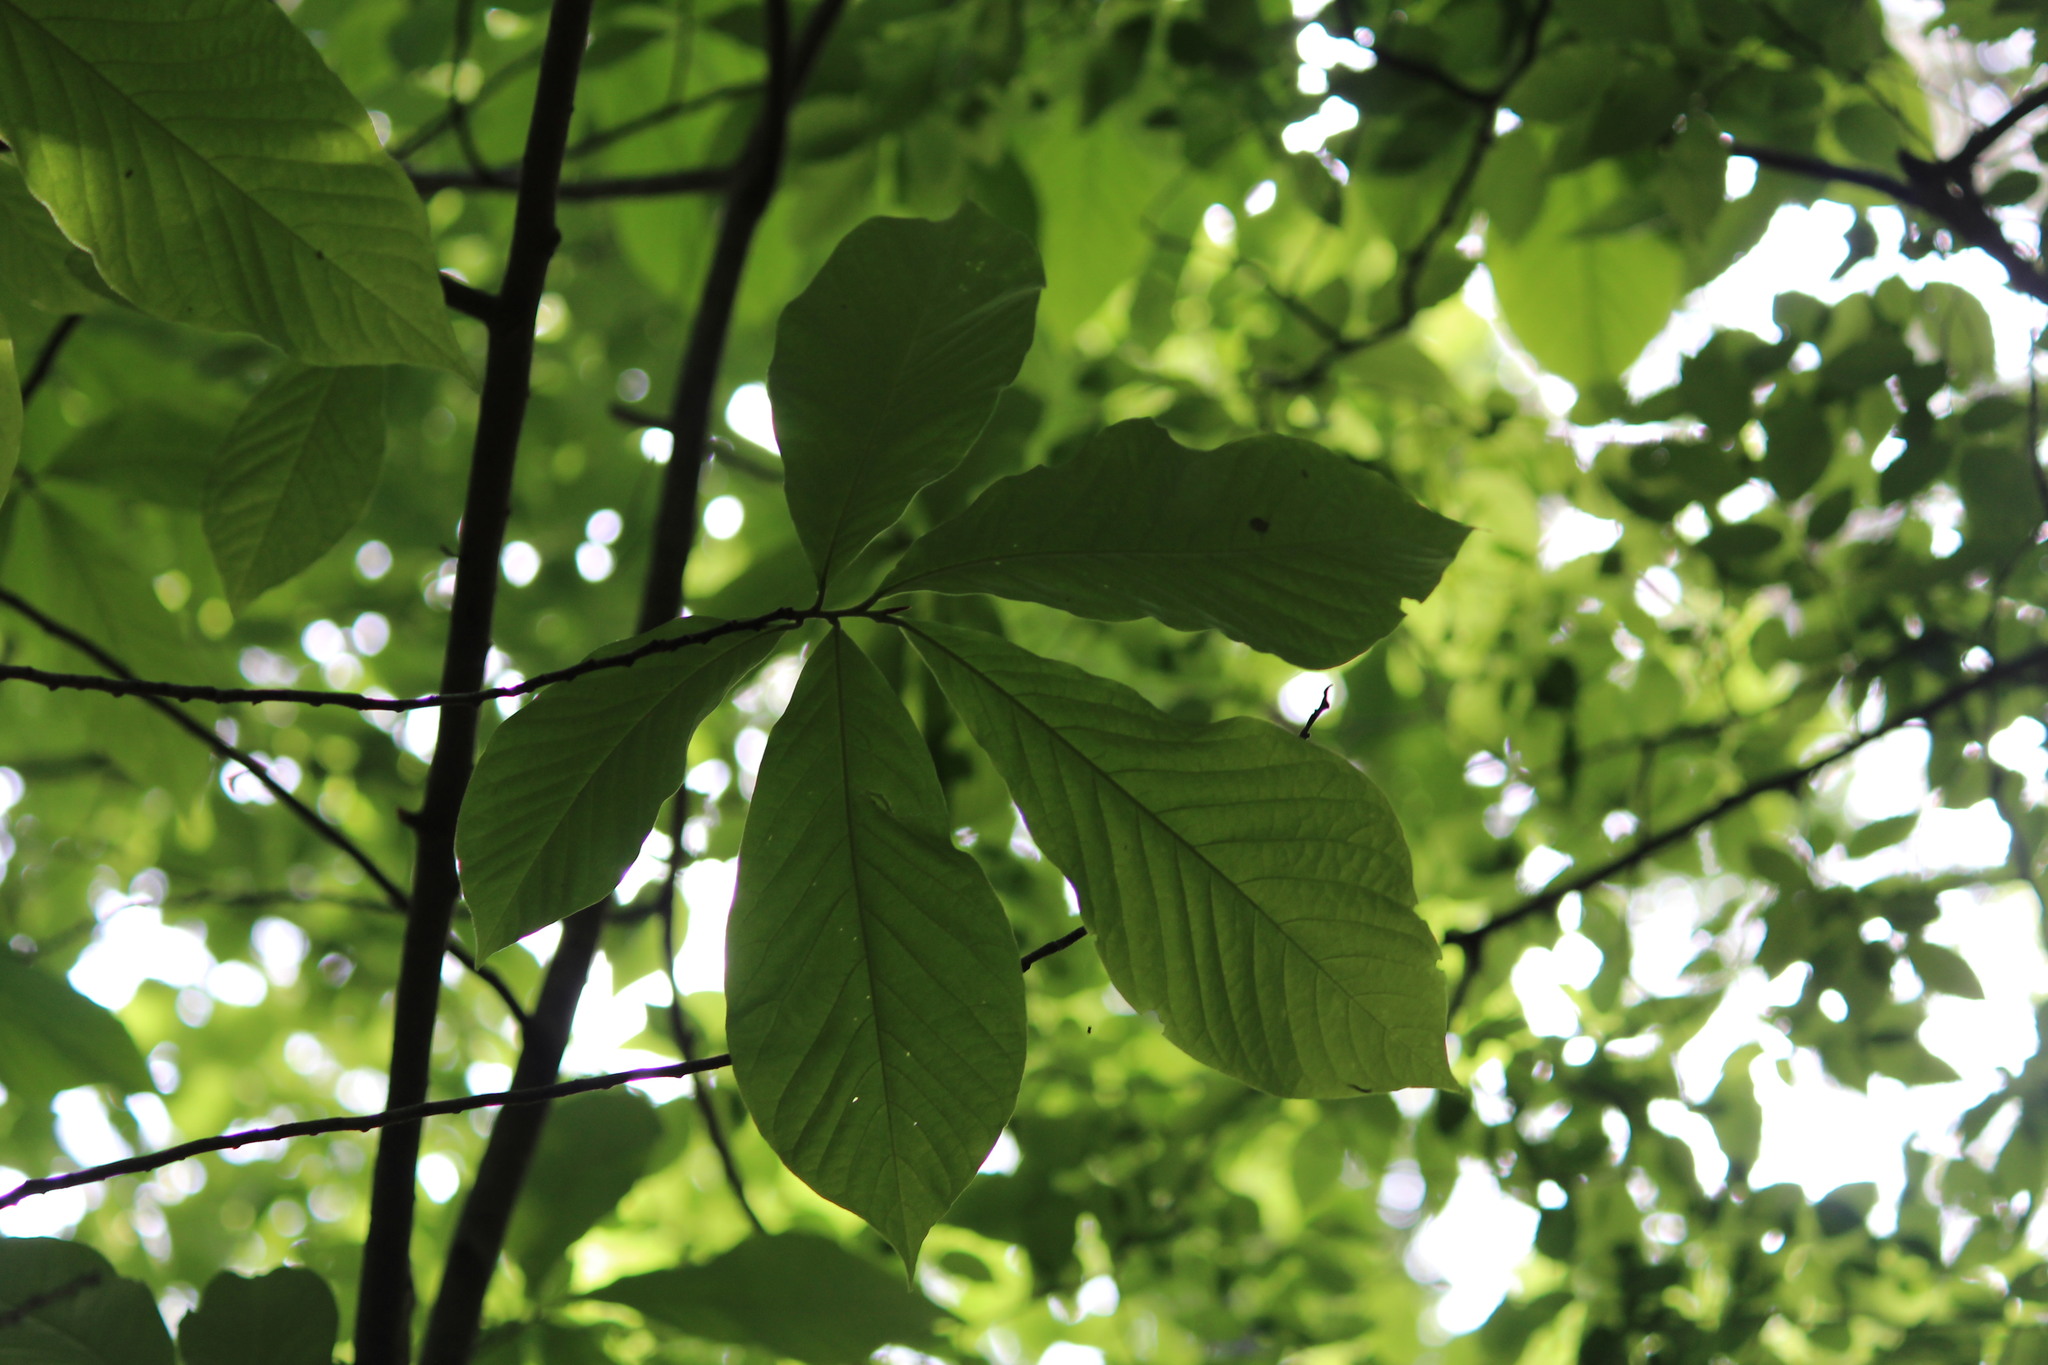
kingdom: Plantae
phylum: Tracheophyta
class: Magnoliopsida
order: Magnoliales
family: Annonaceae
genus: Asimina
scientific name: Asimina triloba
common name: Dog-banana
